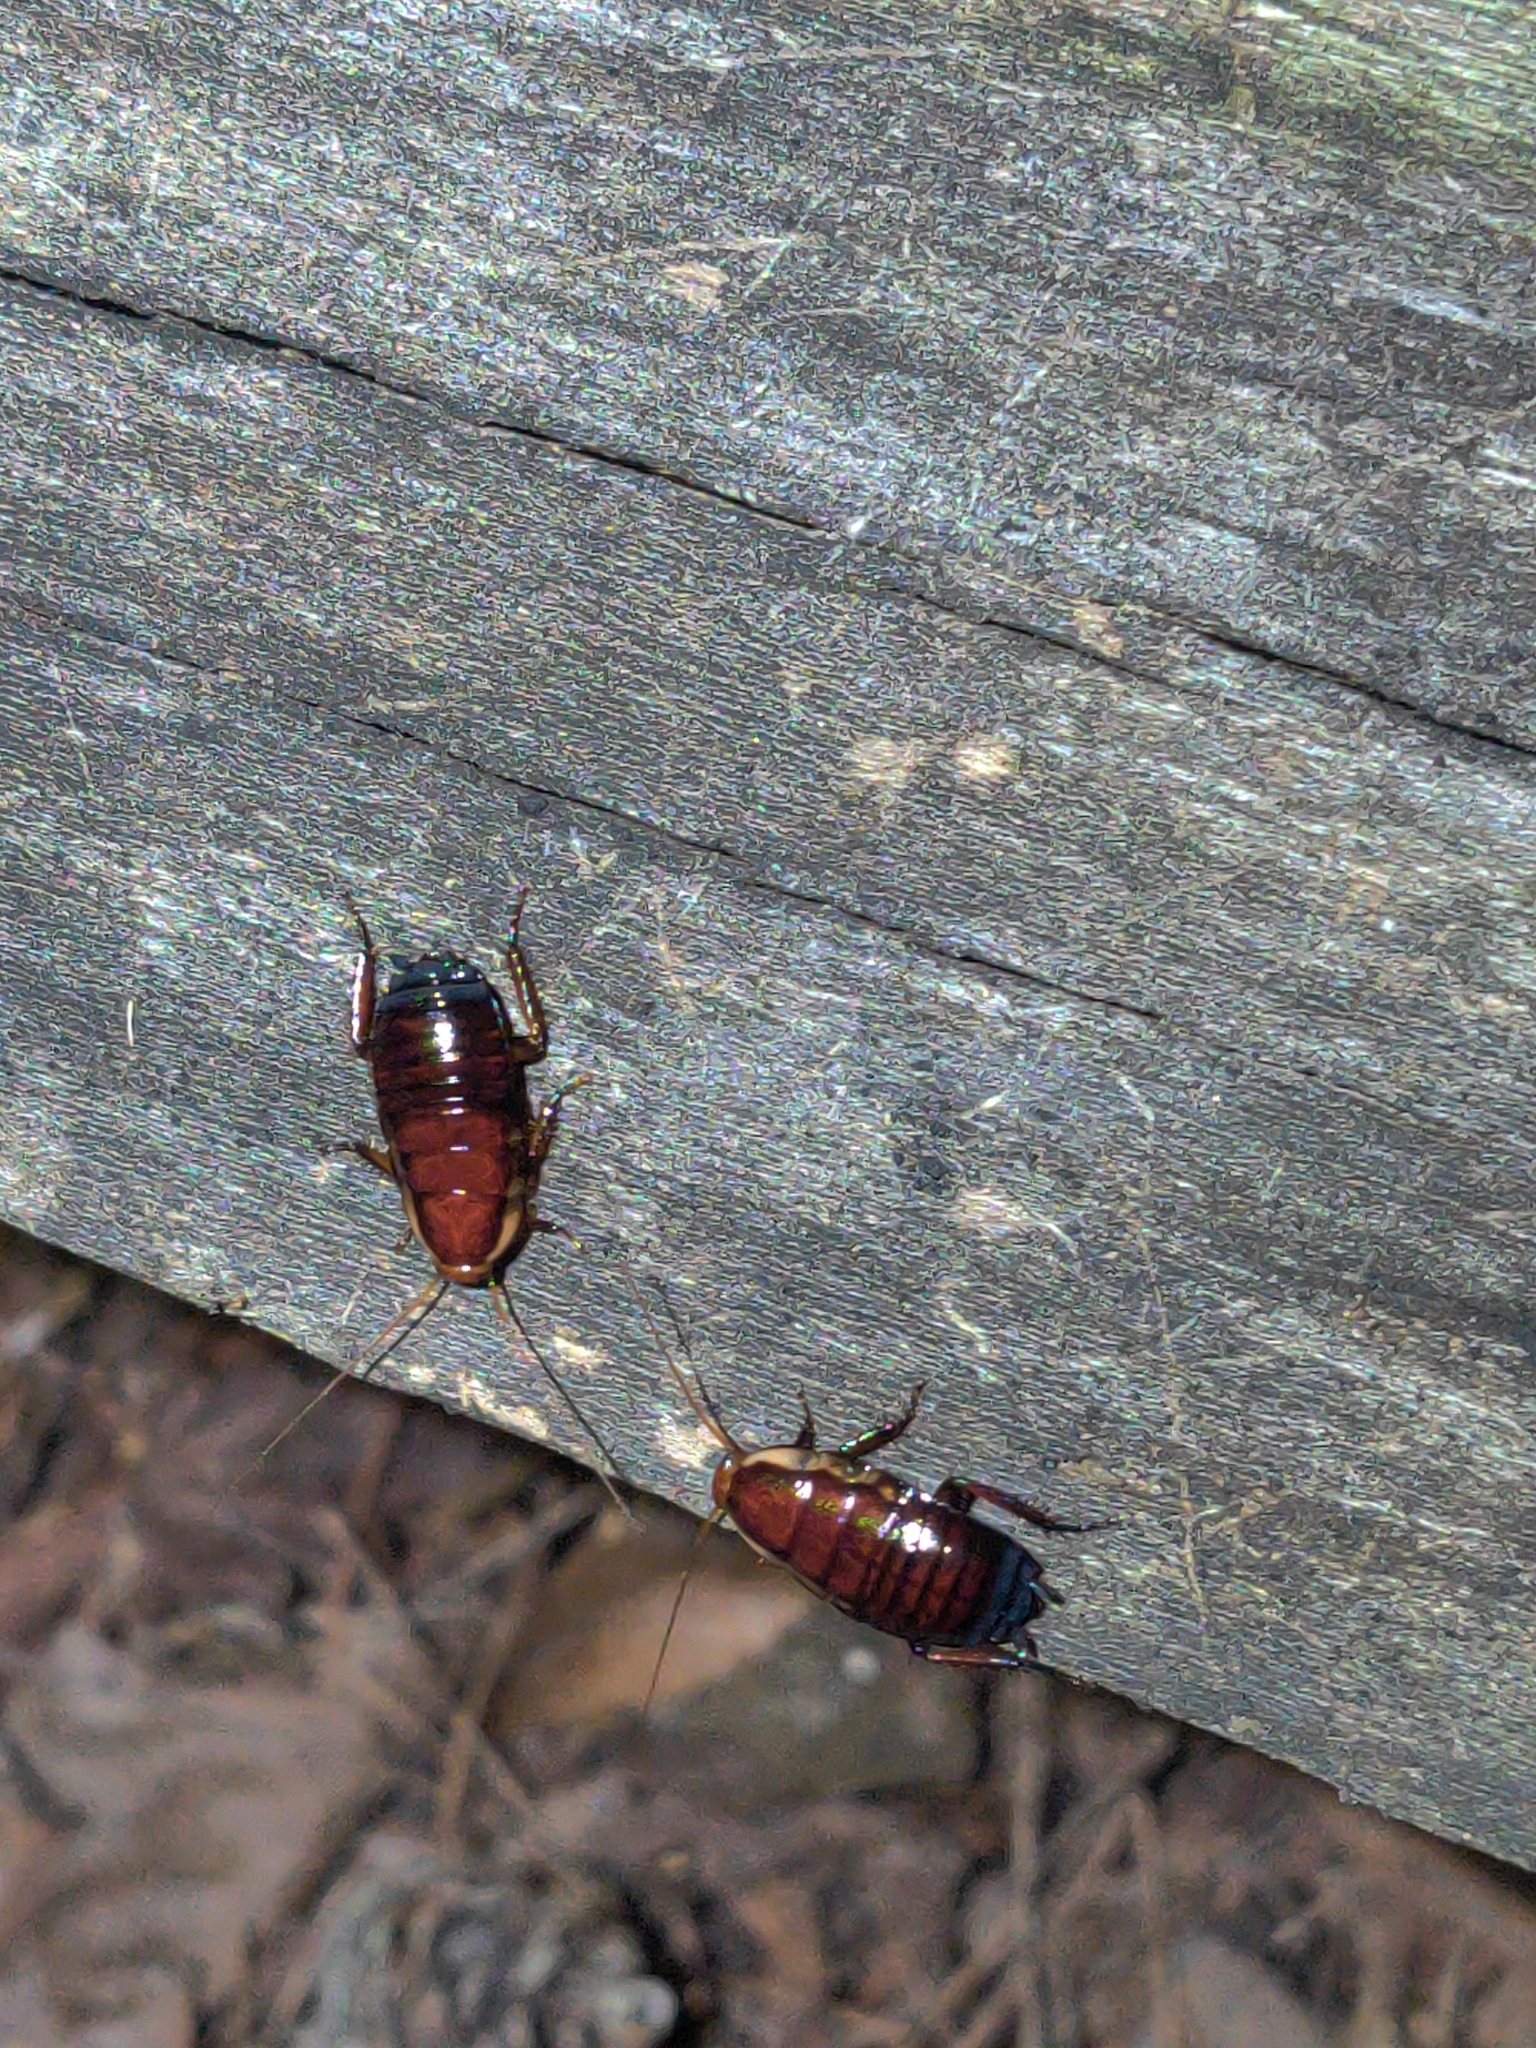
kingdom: Animalia
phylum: Arthropoda
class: Insecta
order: Blattodea
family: Blattidae
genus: Eurycotis
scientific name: Eurycotis floridana
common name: Florida cockroach
